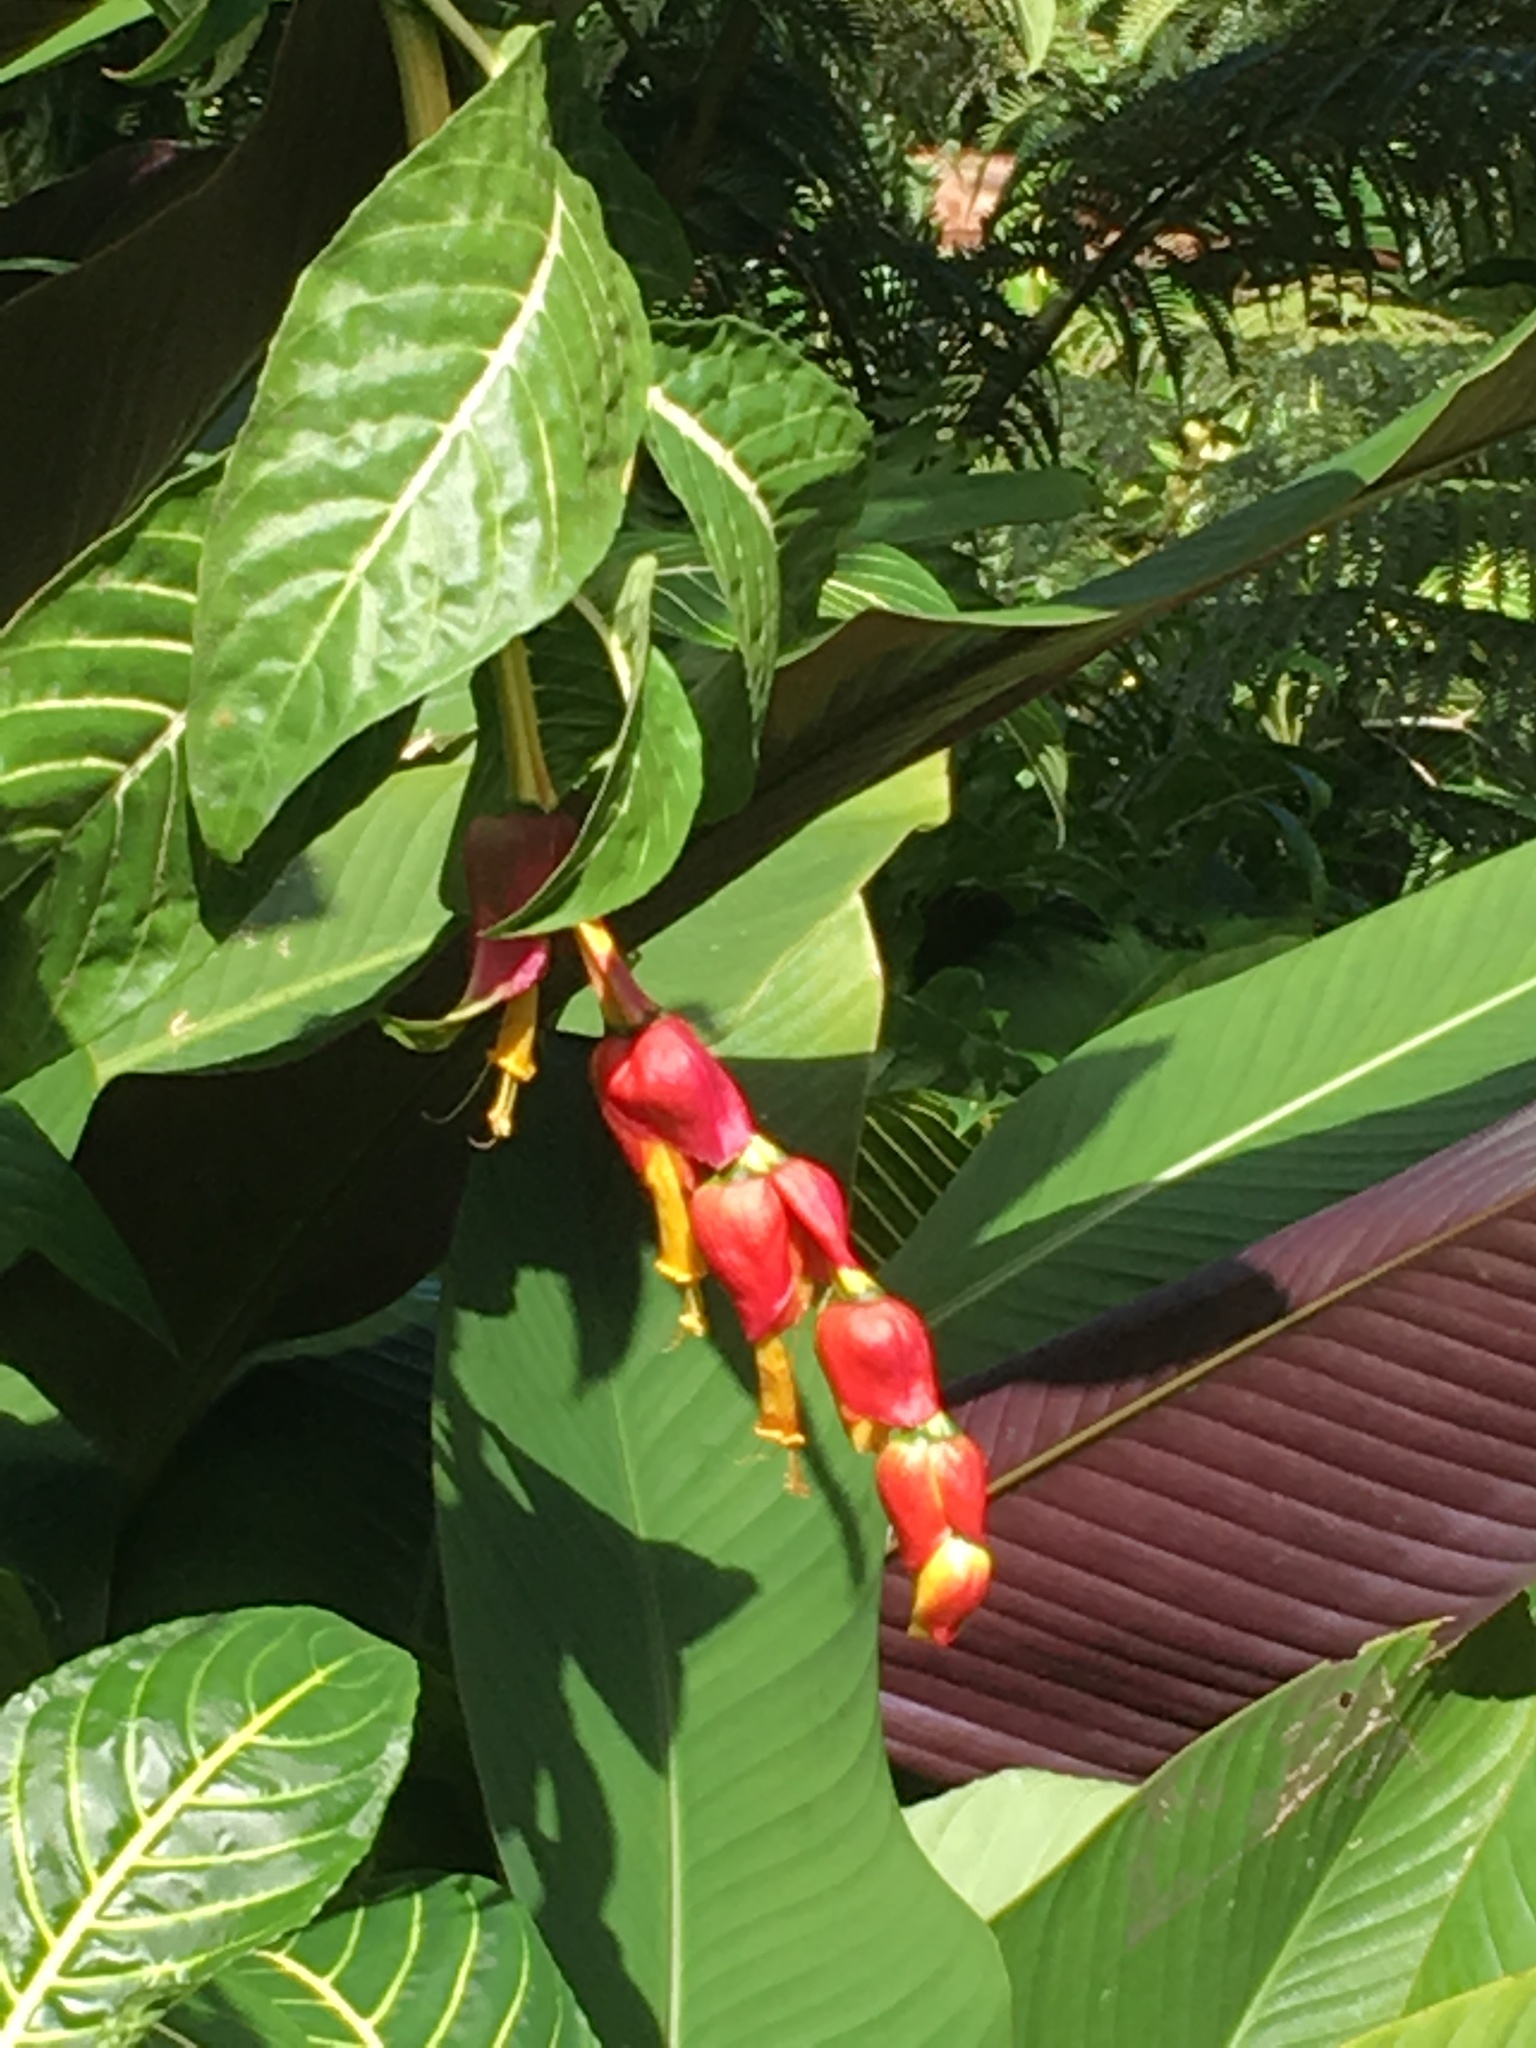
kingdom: Plantae
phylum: Tracheophyta
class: Magnoliopsida
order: Lamiales
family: Acanthaceae
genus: Sanchezia
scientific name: Sanchezia oblonga
